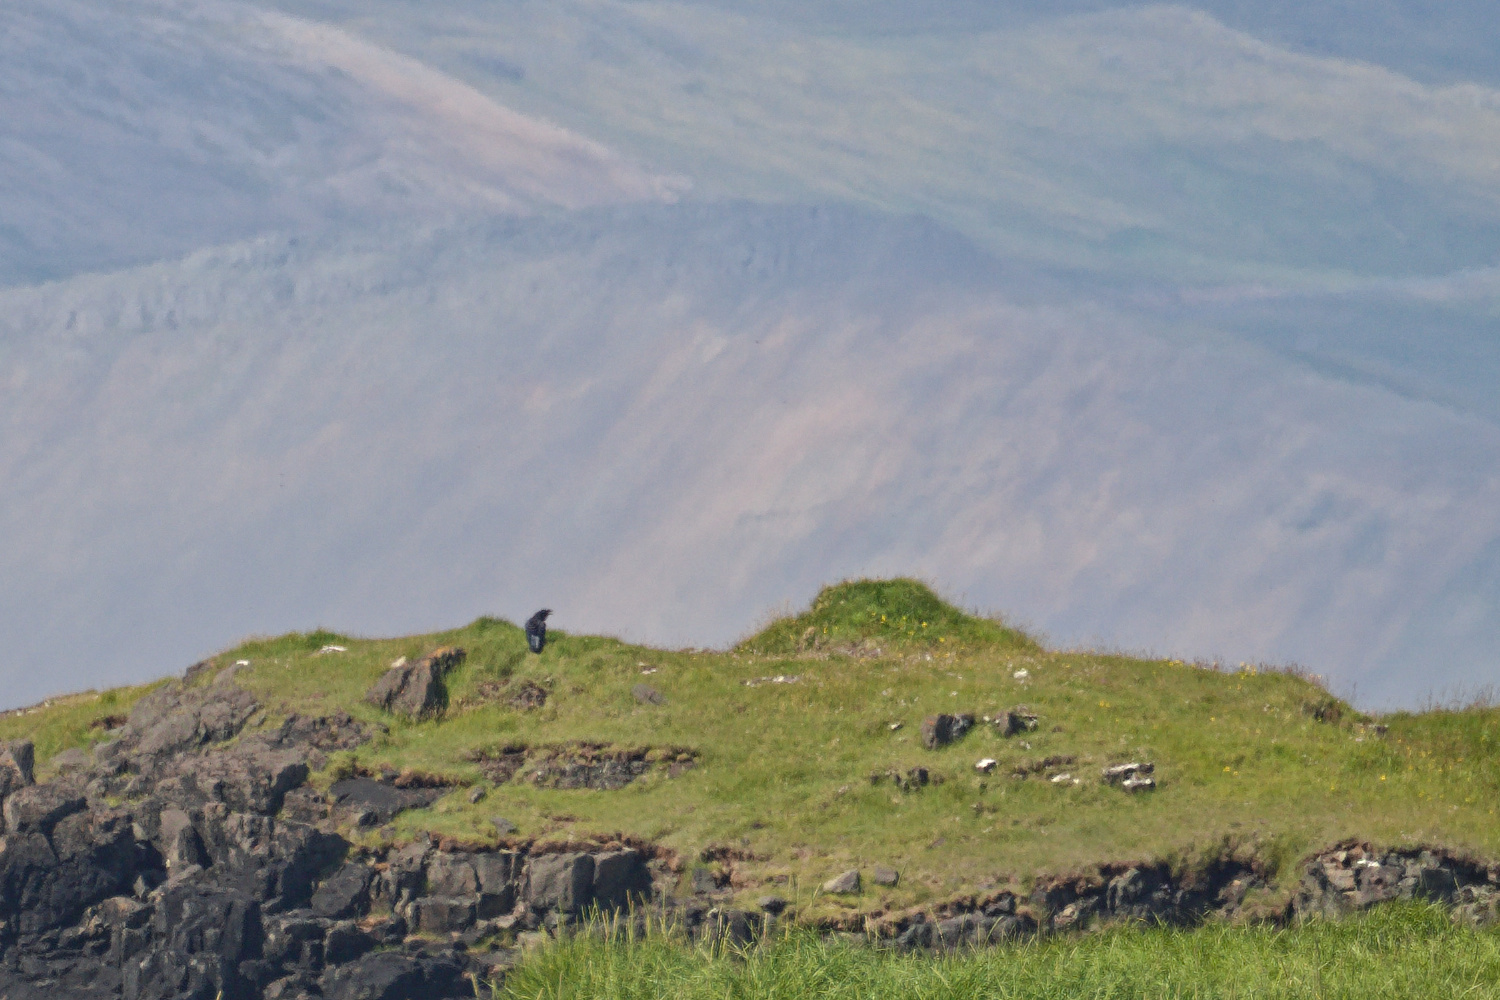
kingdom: Animalia
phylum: Chordata
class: Aves
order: Passeriformes
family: Corvidae
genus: Corvus
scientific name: Corvus corax
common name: Common raven
